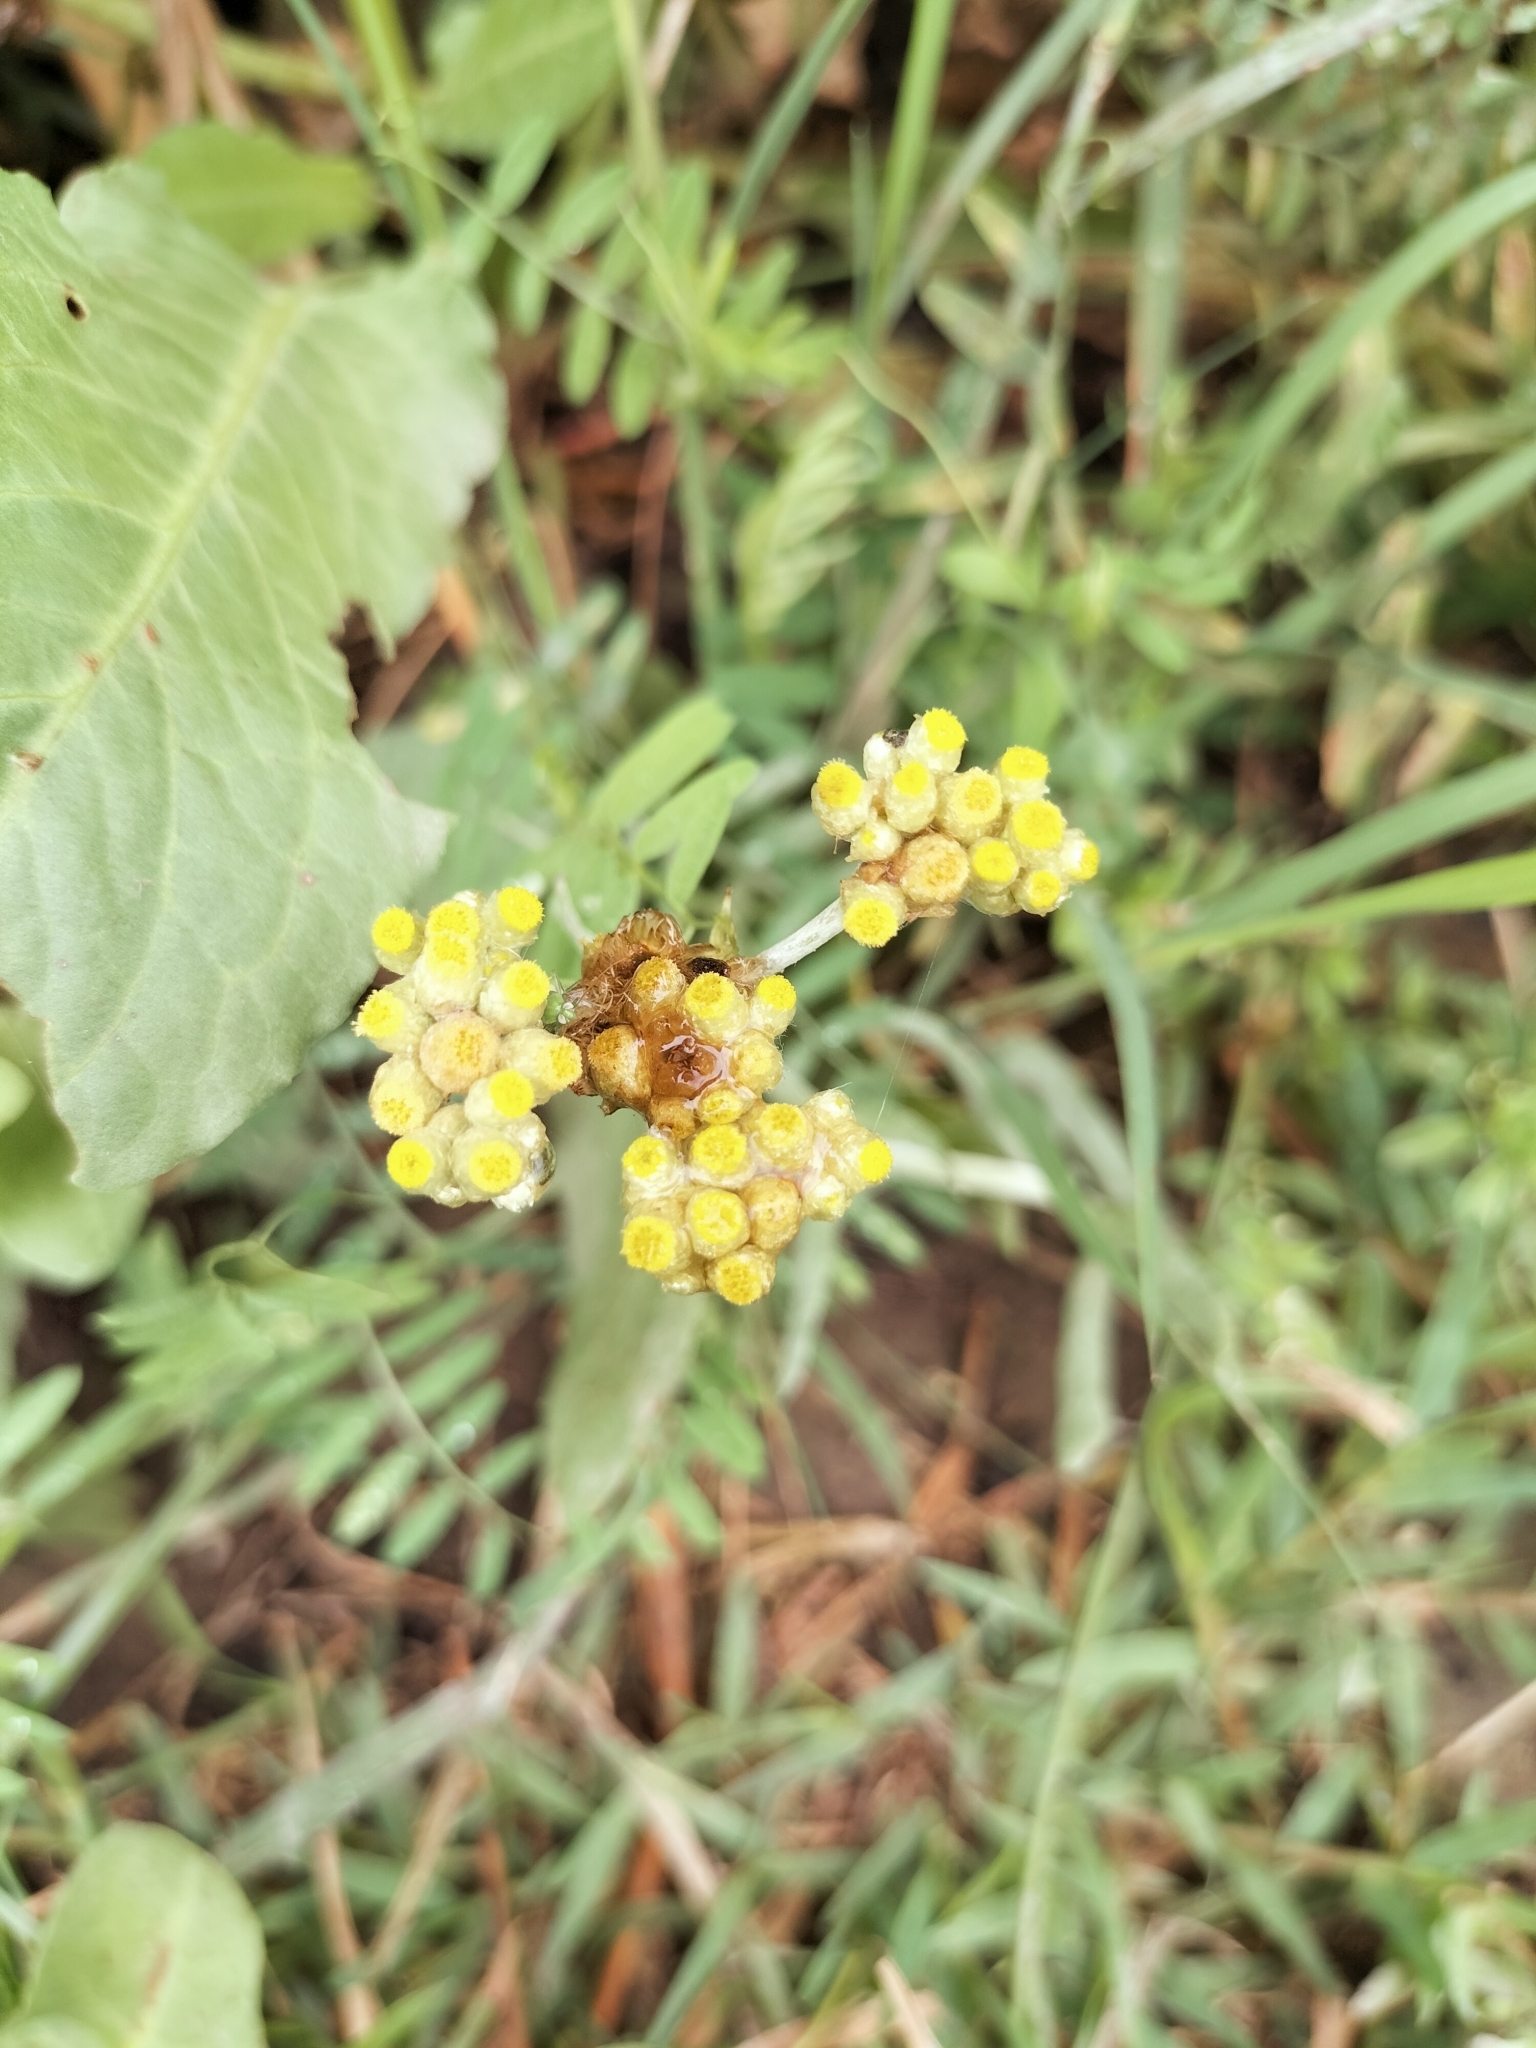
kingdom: Plantae
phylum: Tracheophyta
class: Magnoliopsida
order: Asterales
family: Asteraceae
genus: Pseudognaphalium
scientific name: Pseudognaphalium affine
